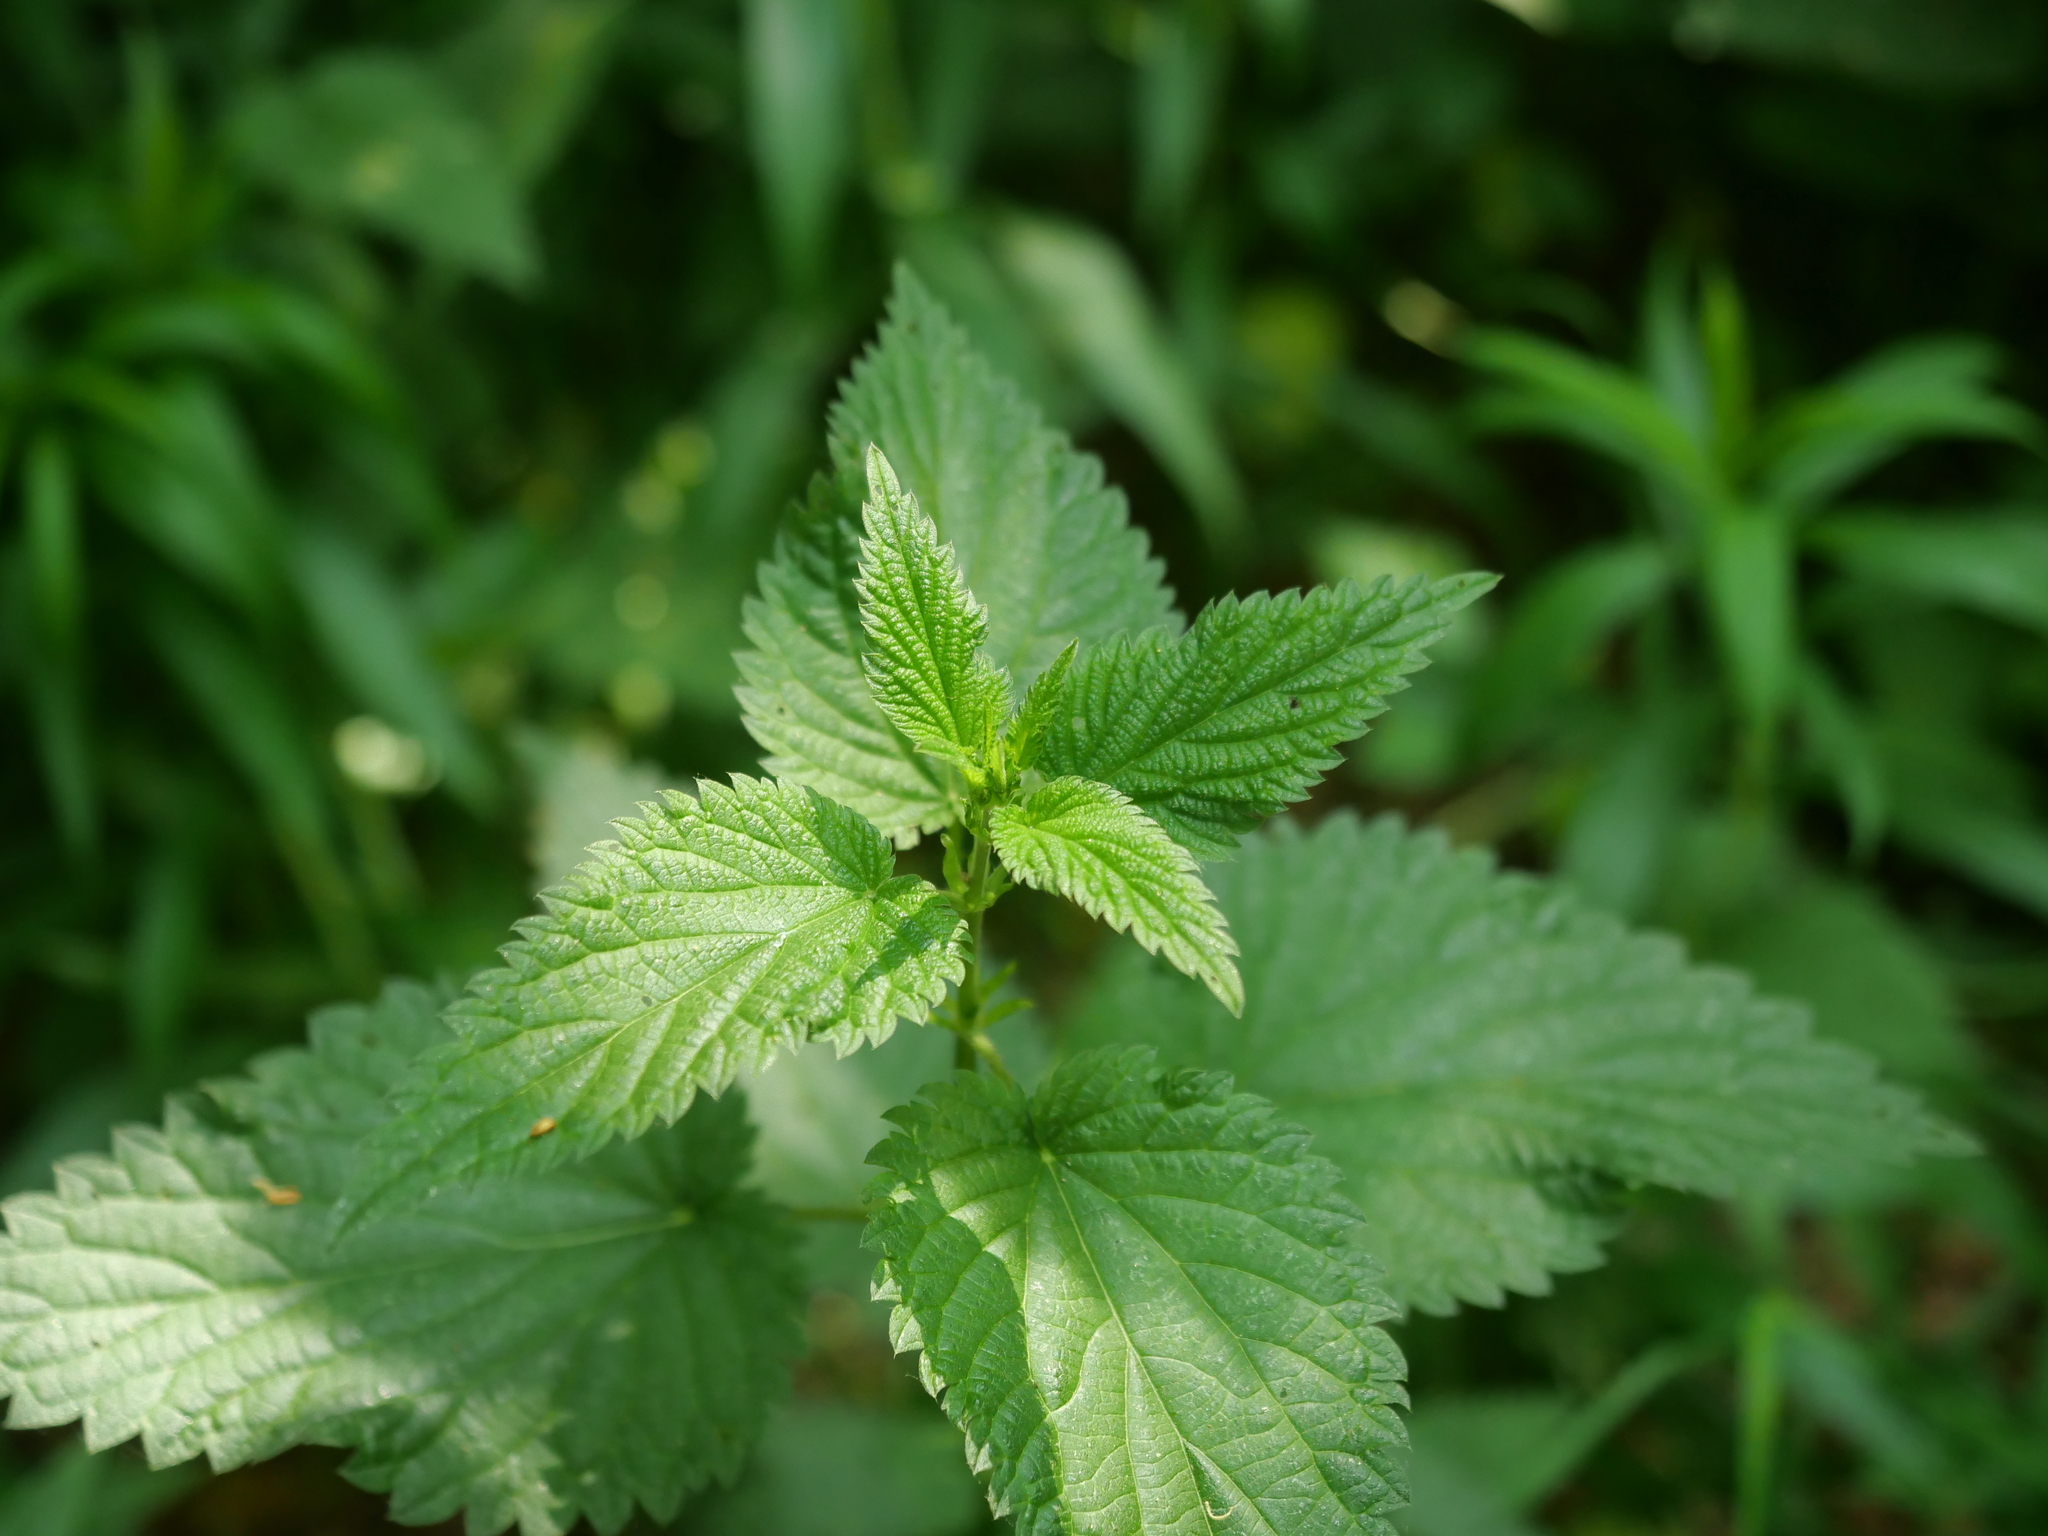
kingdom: Plantae
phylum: Tracheophyta
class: Magnoliopsida
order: Rosales
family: Urticaceae
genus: Urtica
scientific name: Urtica dioica
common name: Common nettle
